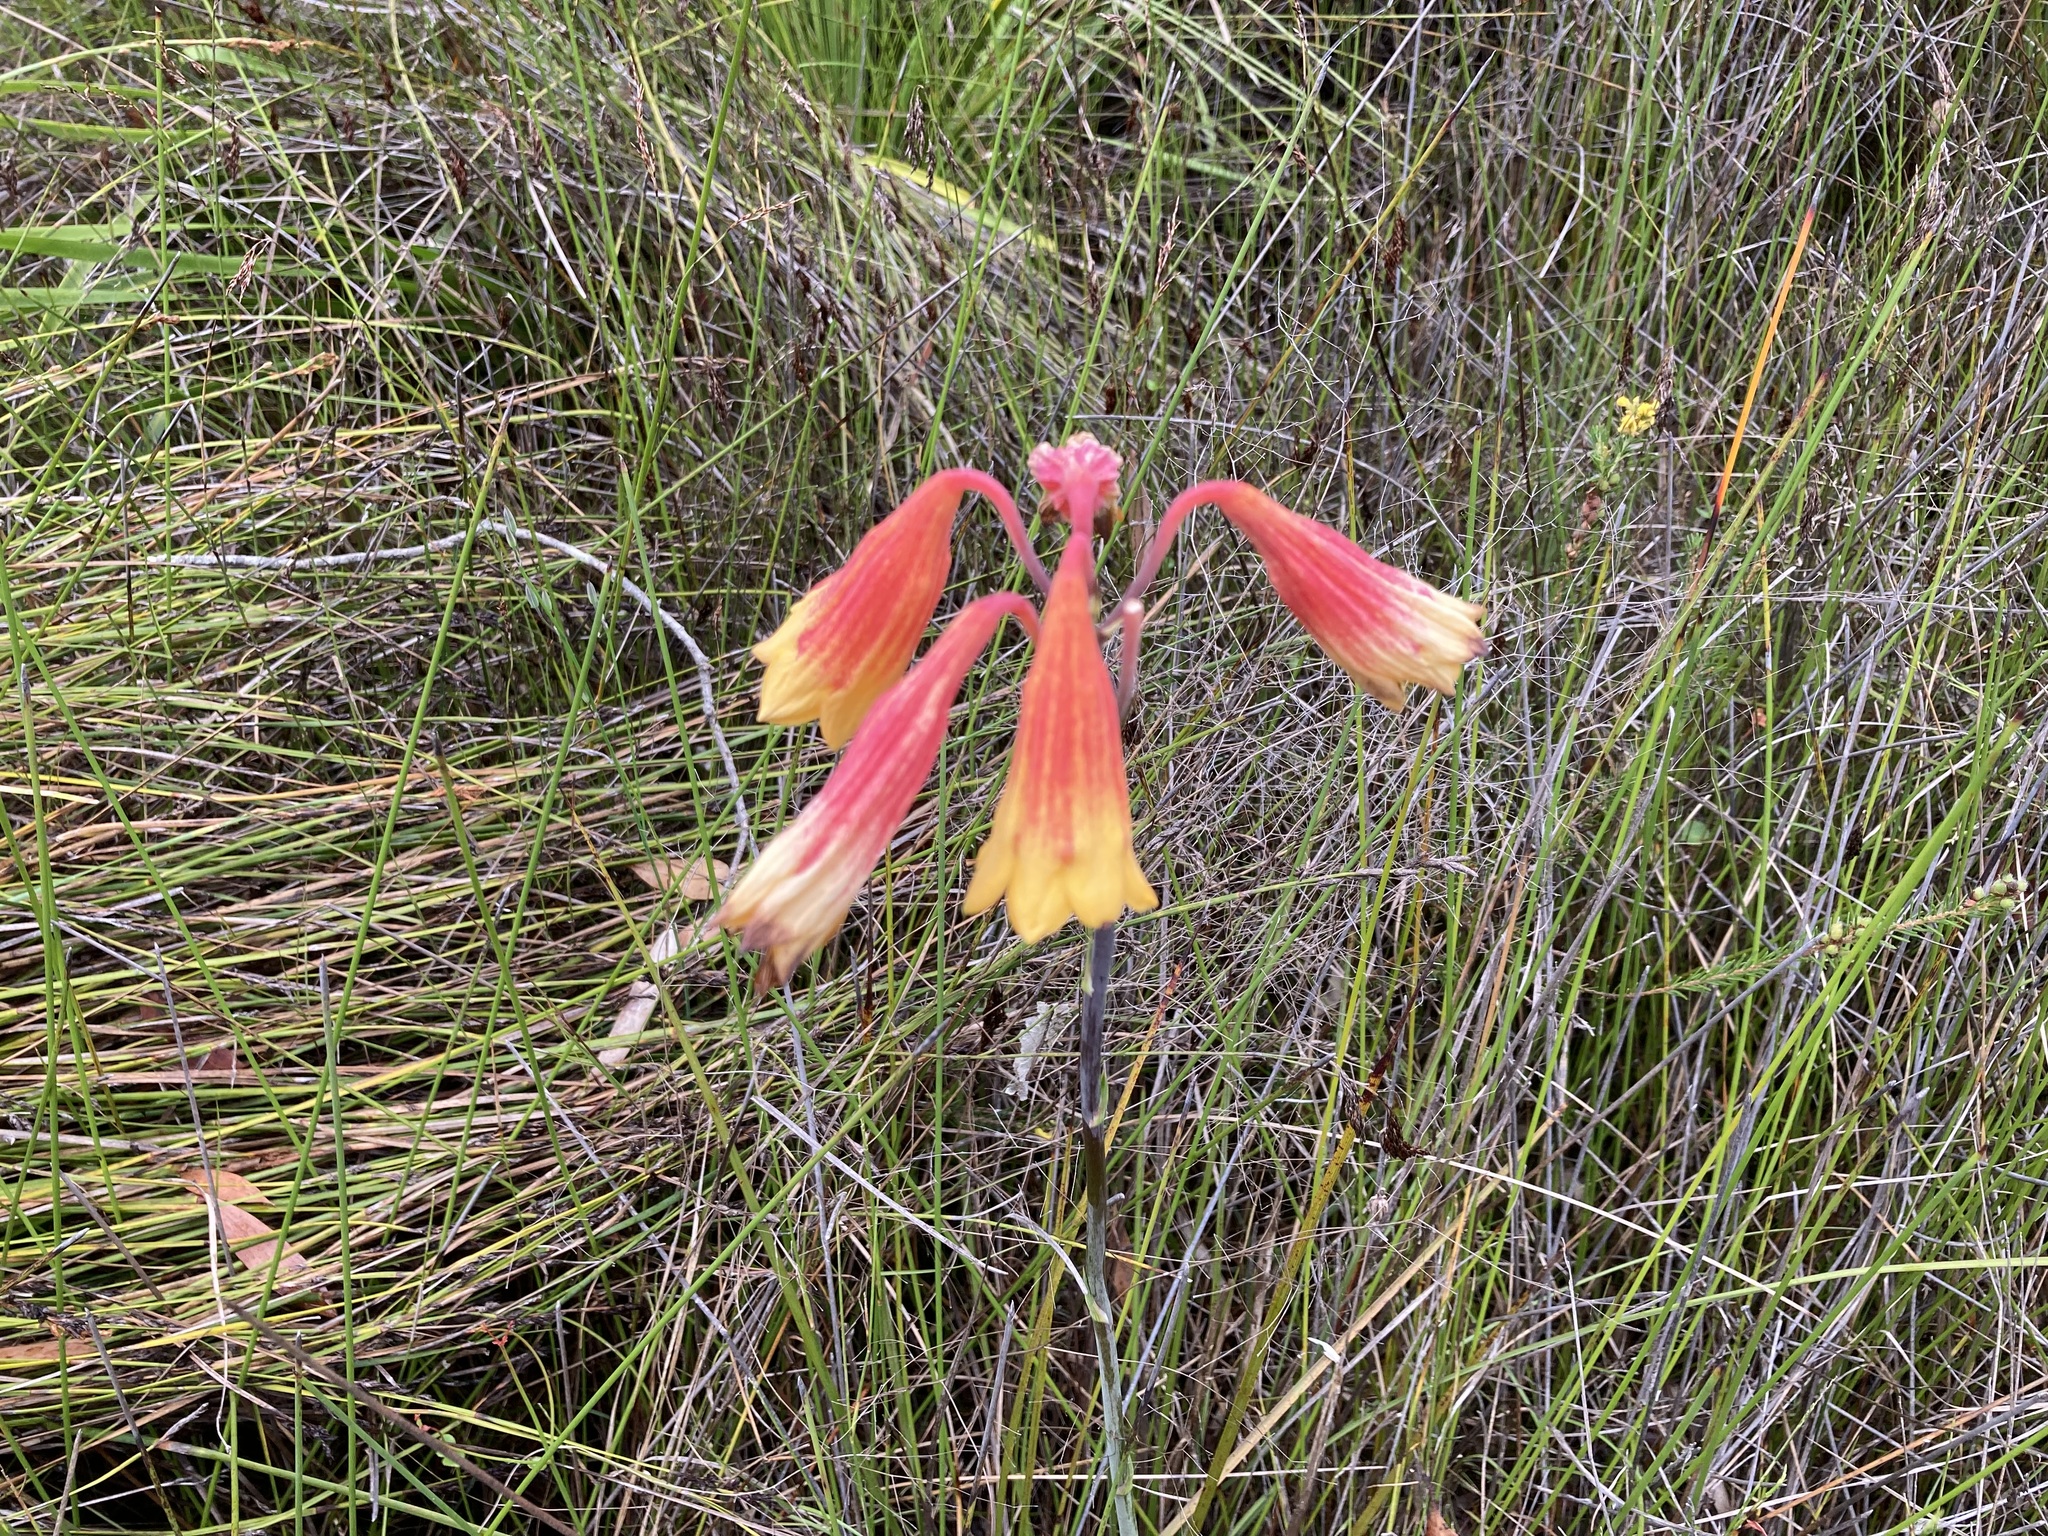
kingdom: Plantae
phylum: Tracheophyta
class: Liliopsida
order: Asparagales
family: Blandfordiaceae
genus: Blandfordia
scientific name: Blandfordia grandiflora
